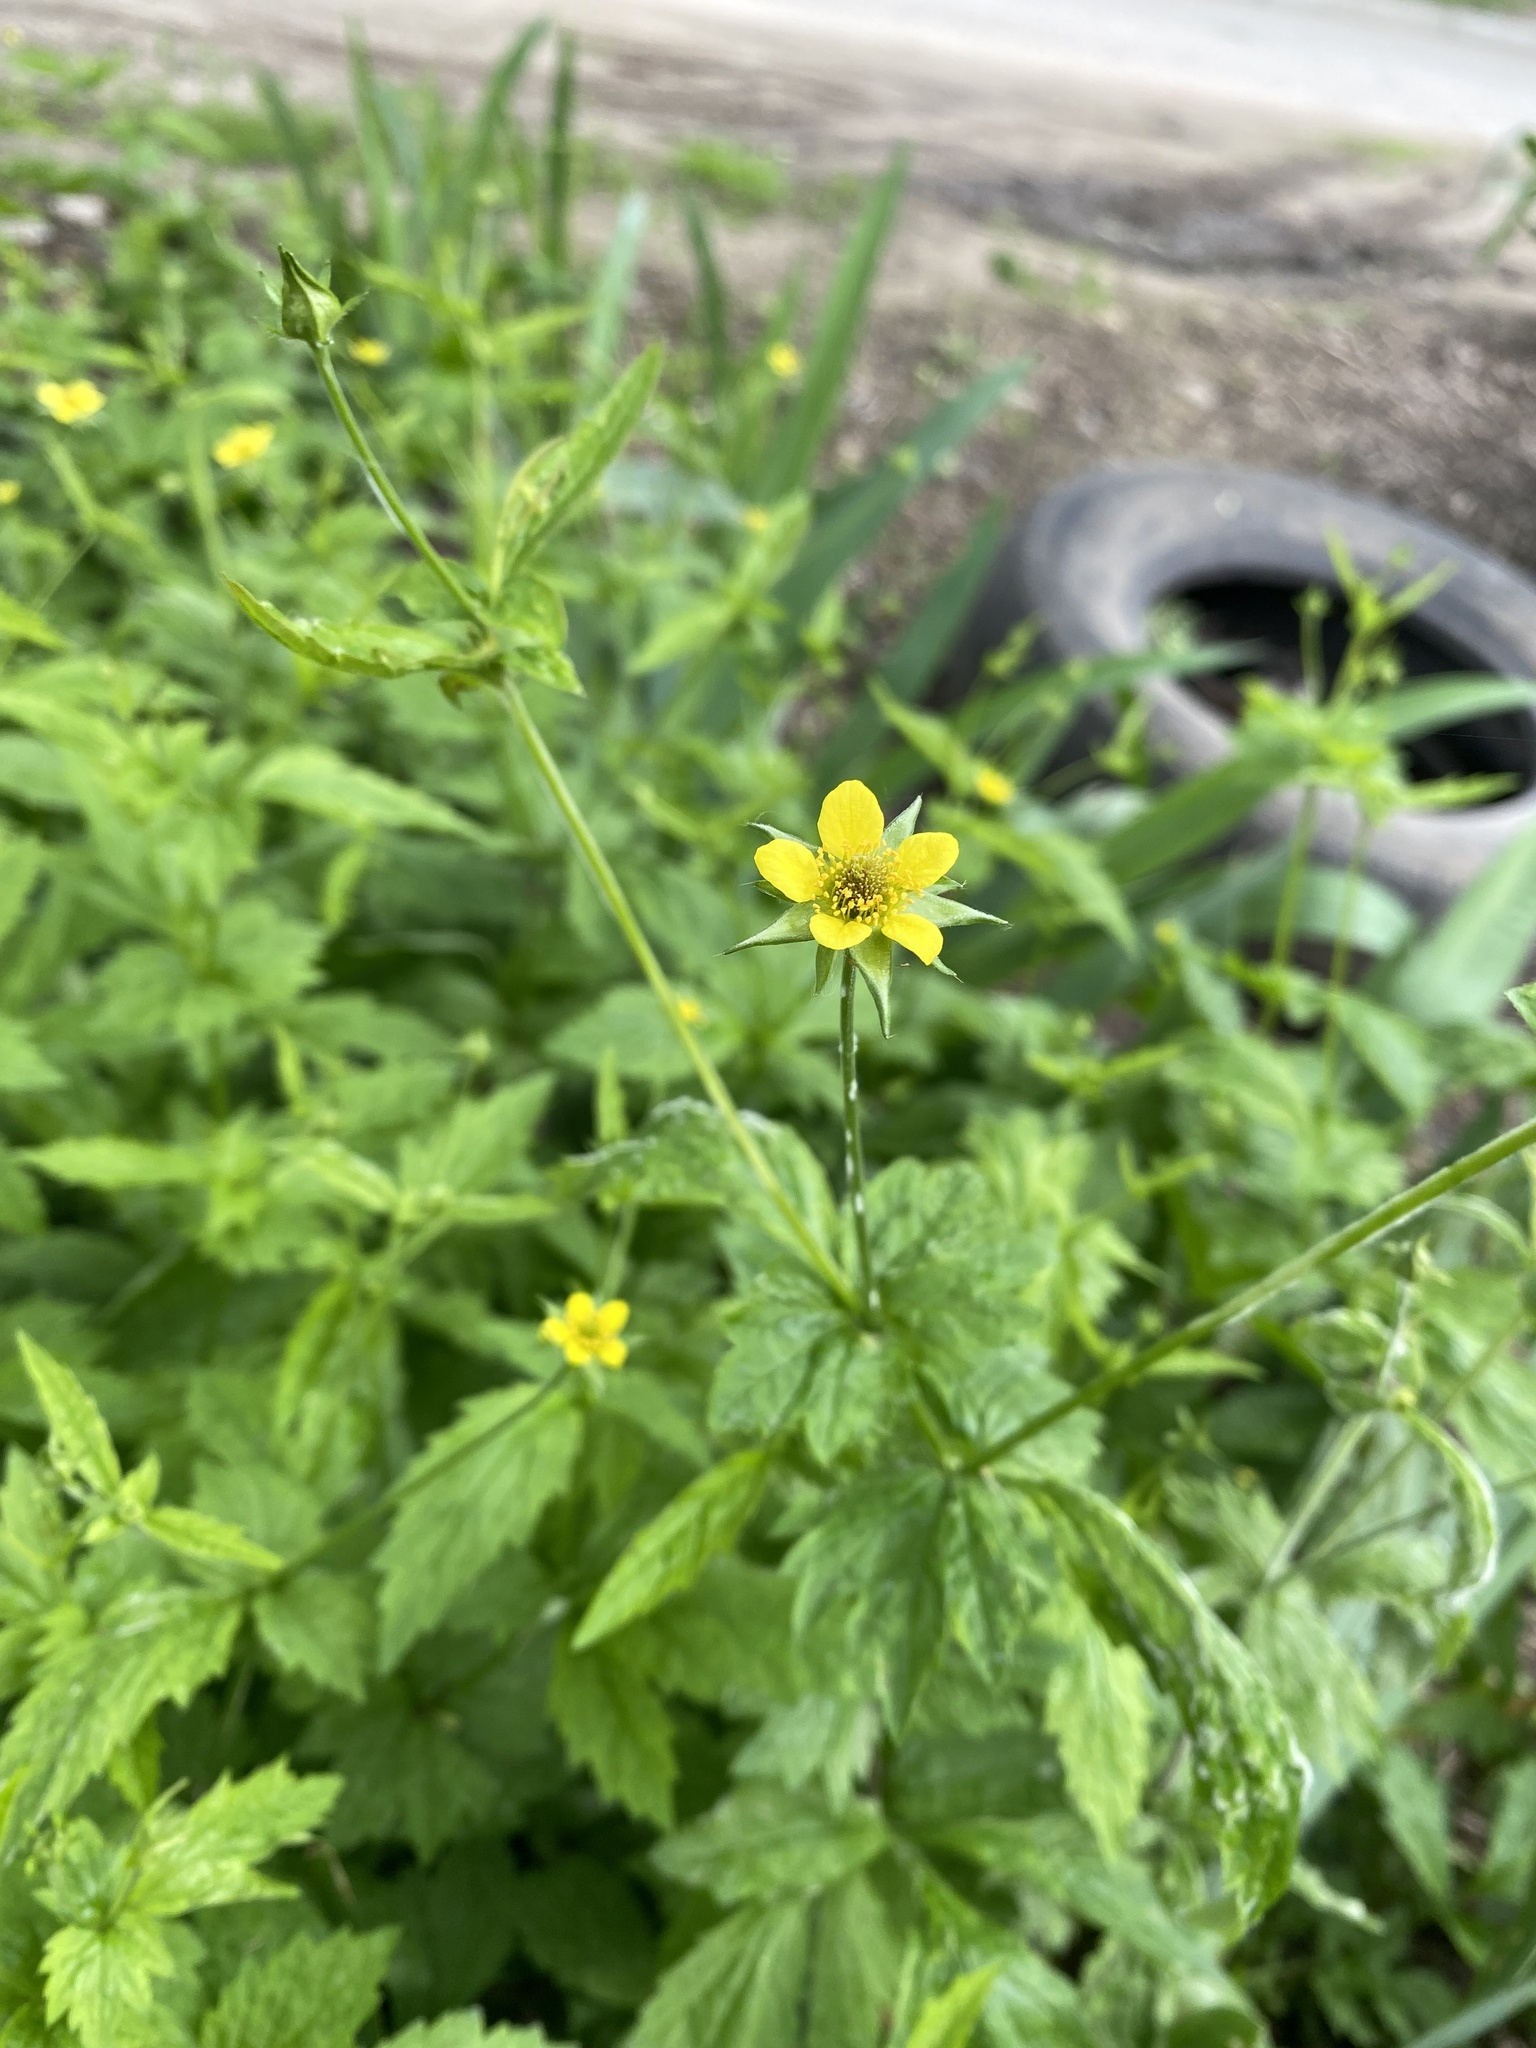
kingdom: Plantae
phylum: Tracheophyta
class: Magnoliopsida
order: Rosales
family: Rosaceae
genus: Geum
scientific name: Geum urbanum
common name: Wood avens
